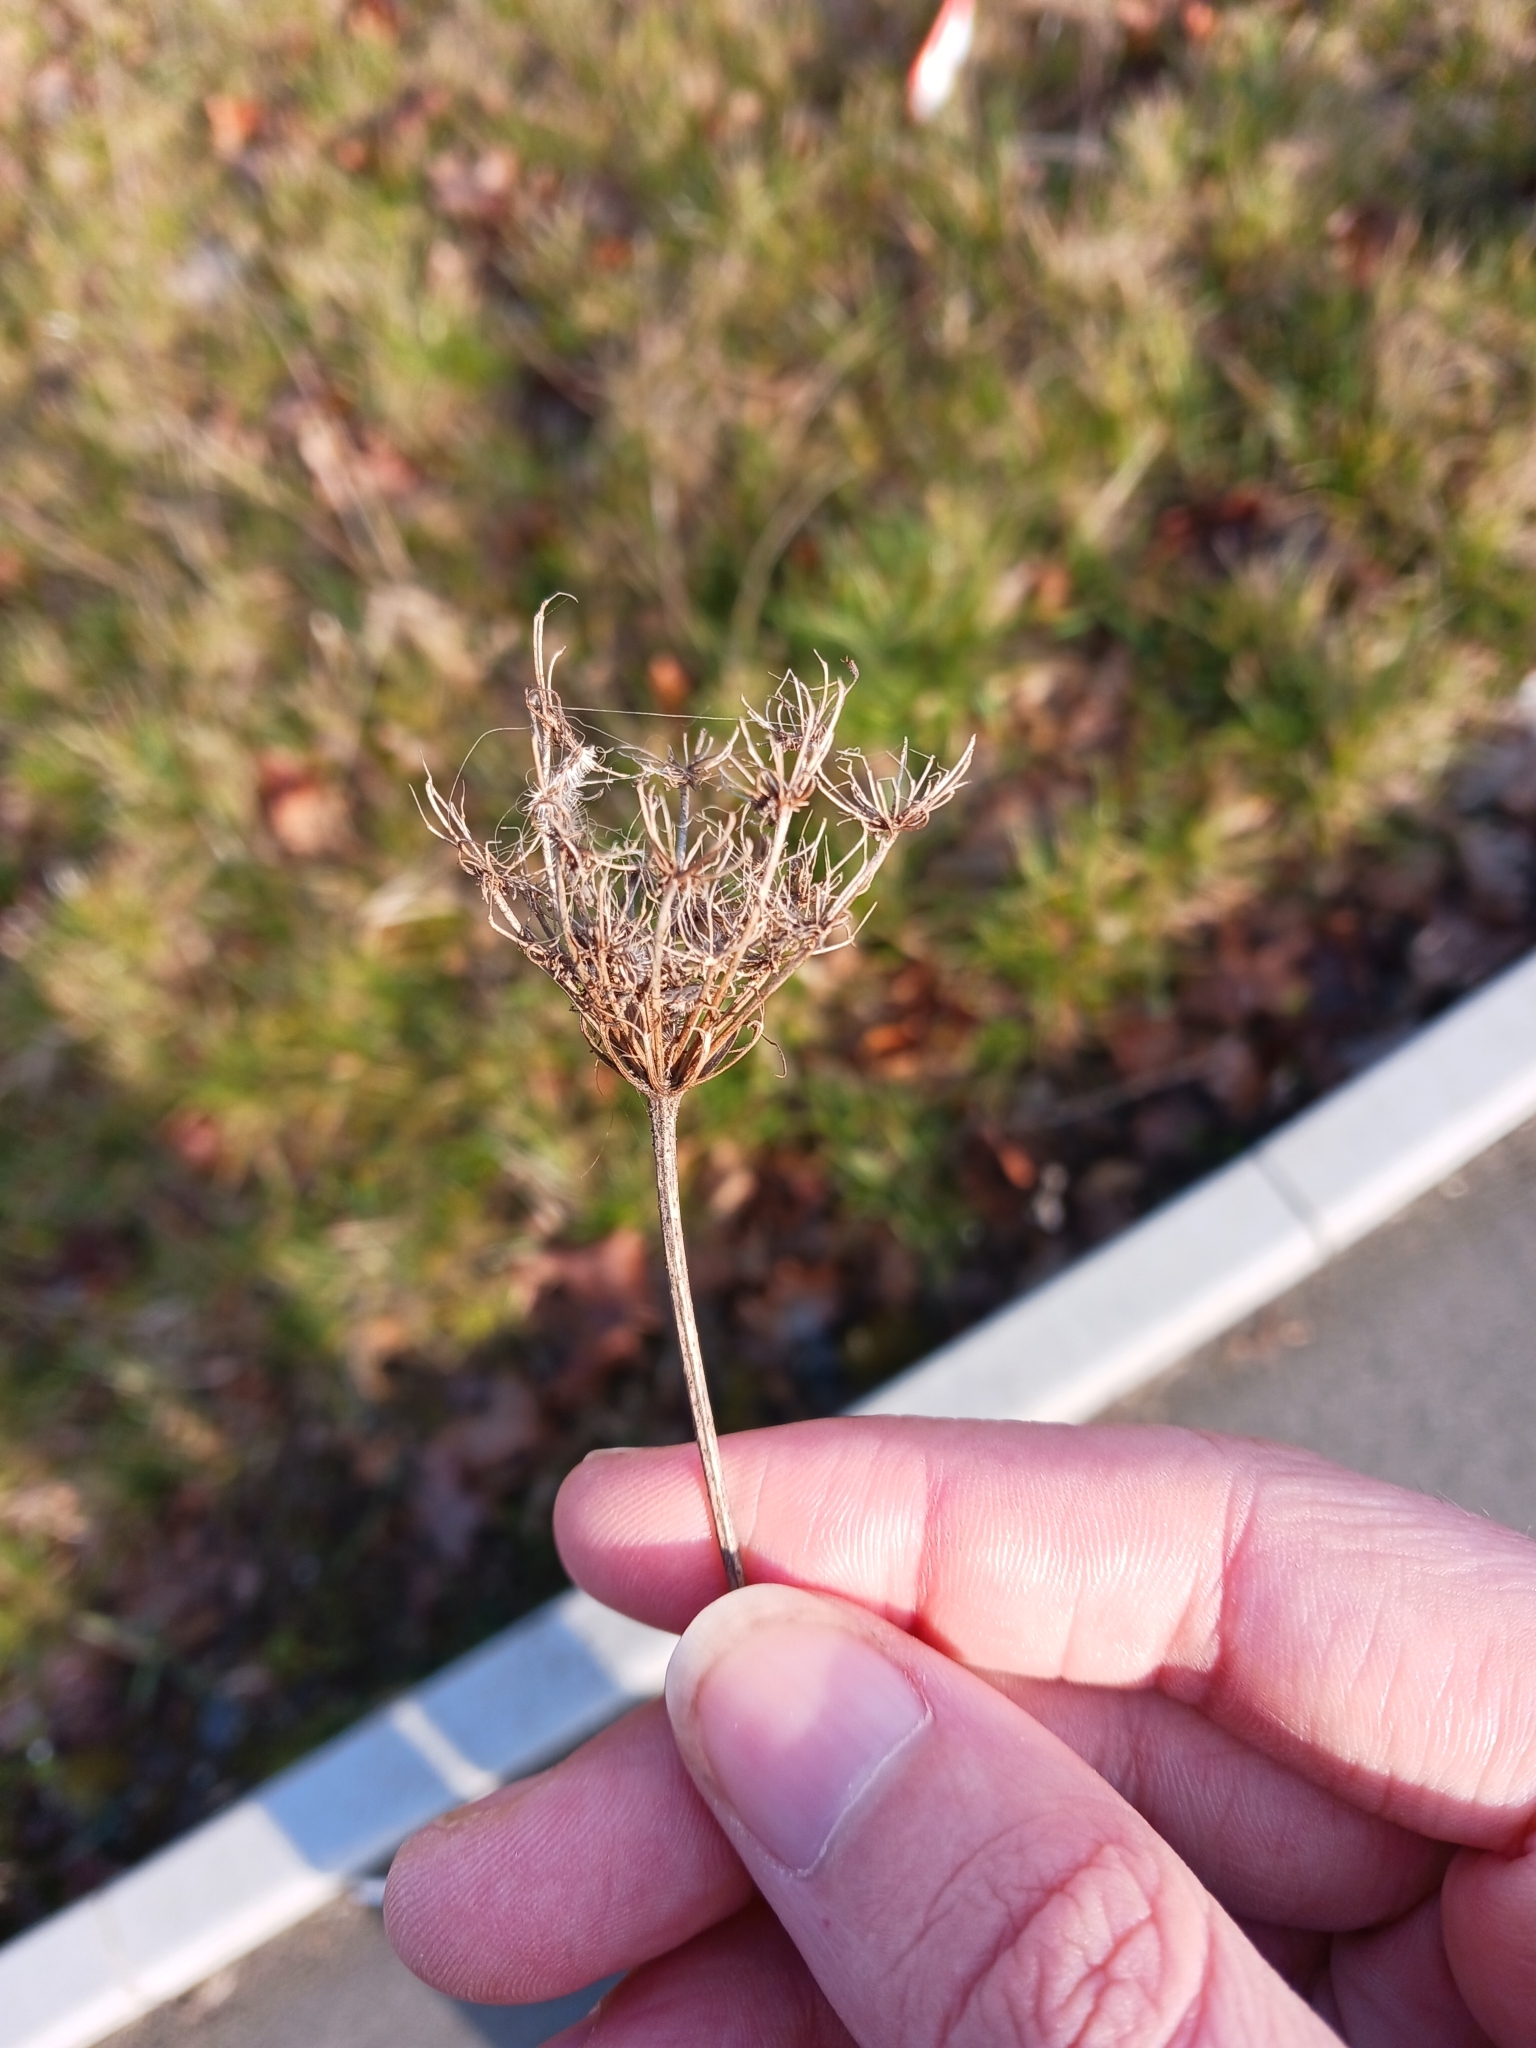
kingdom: Plantae
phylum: Tracheophyta
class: Magnoliopsida
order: Apiales
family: Apiaceae
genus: Daucus
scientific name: Daucus carota
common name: Wild carrot
